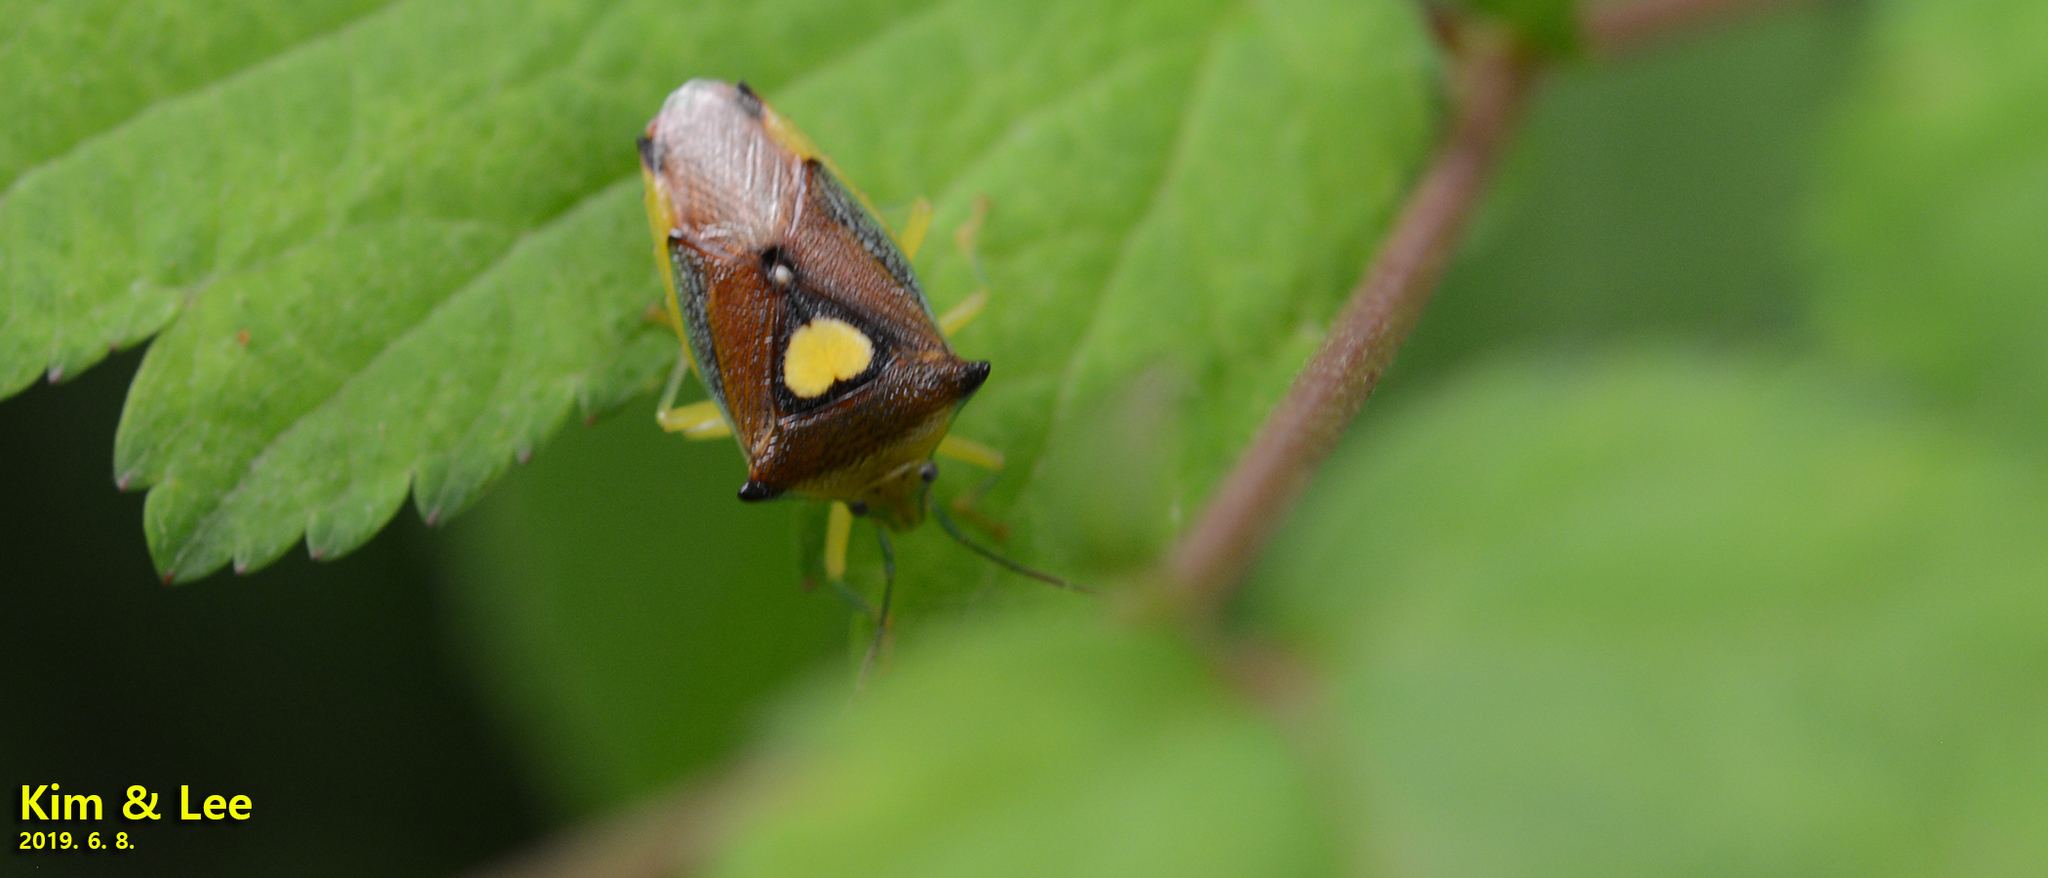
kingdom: Animalia
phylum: Arthropoda
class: Insecta
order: Hemiptera
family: Acanthosomatidae
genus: Sastragala
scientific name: Sastragala esakii
